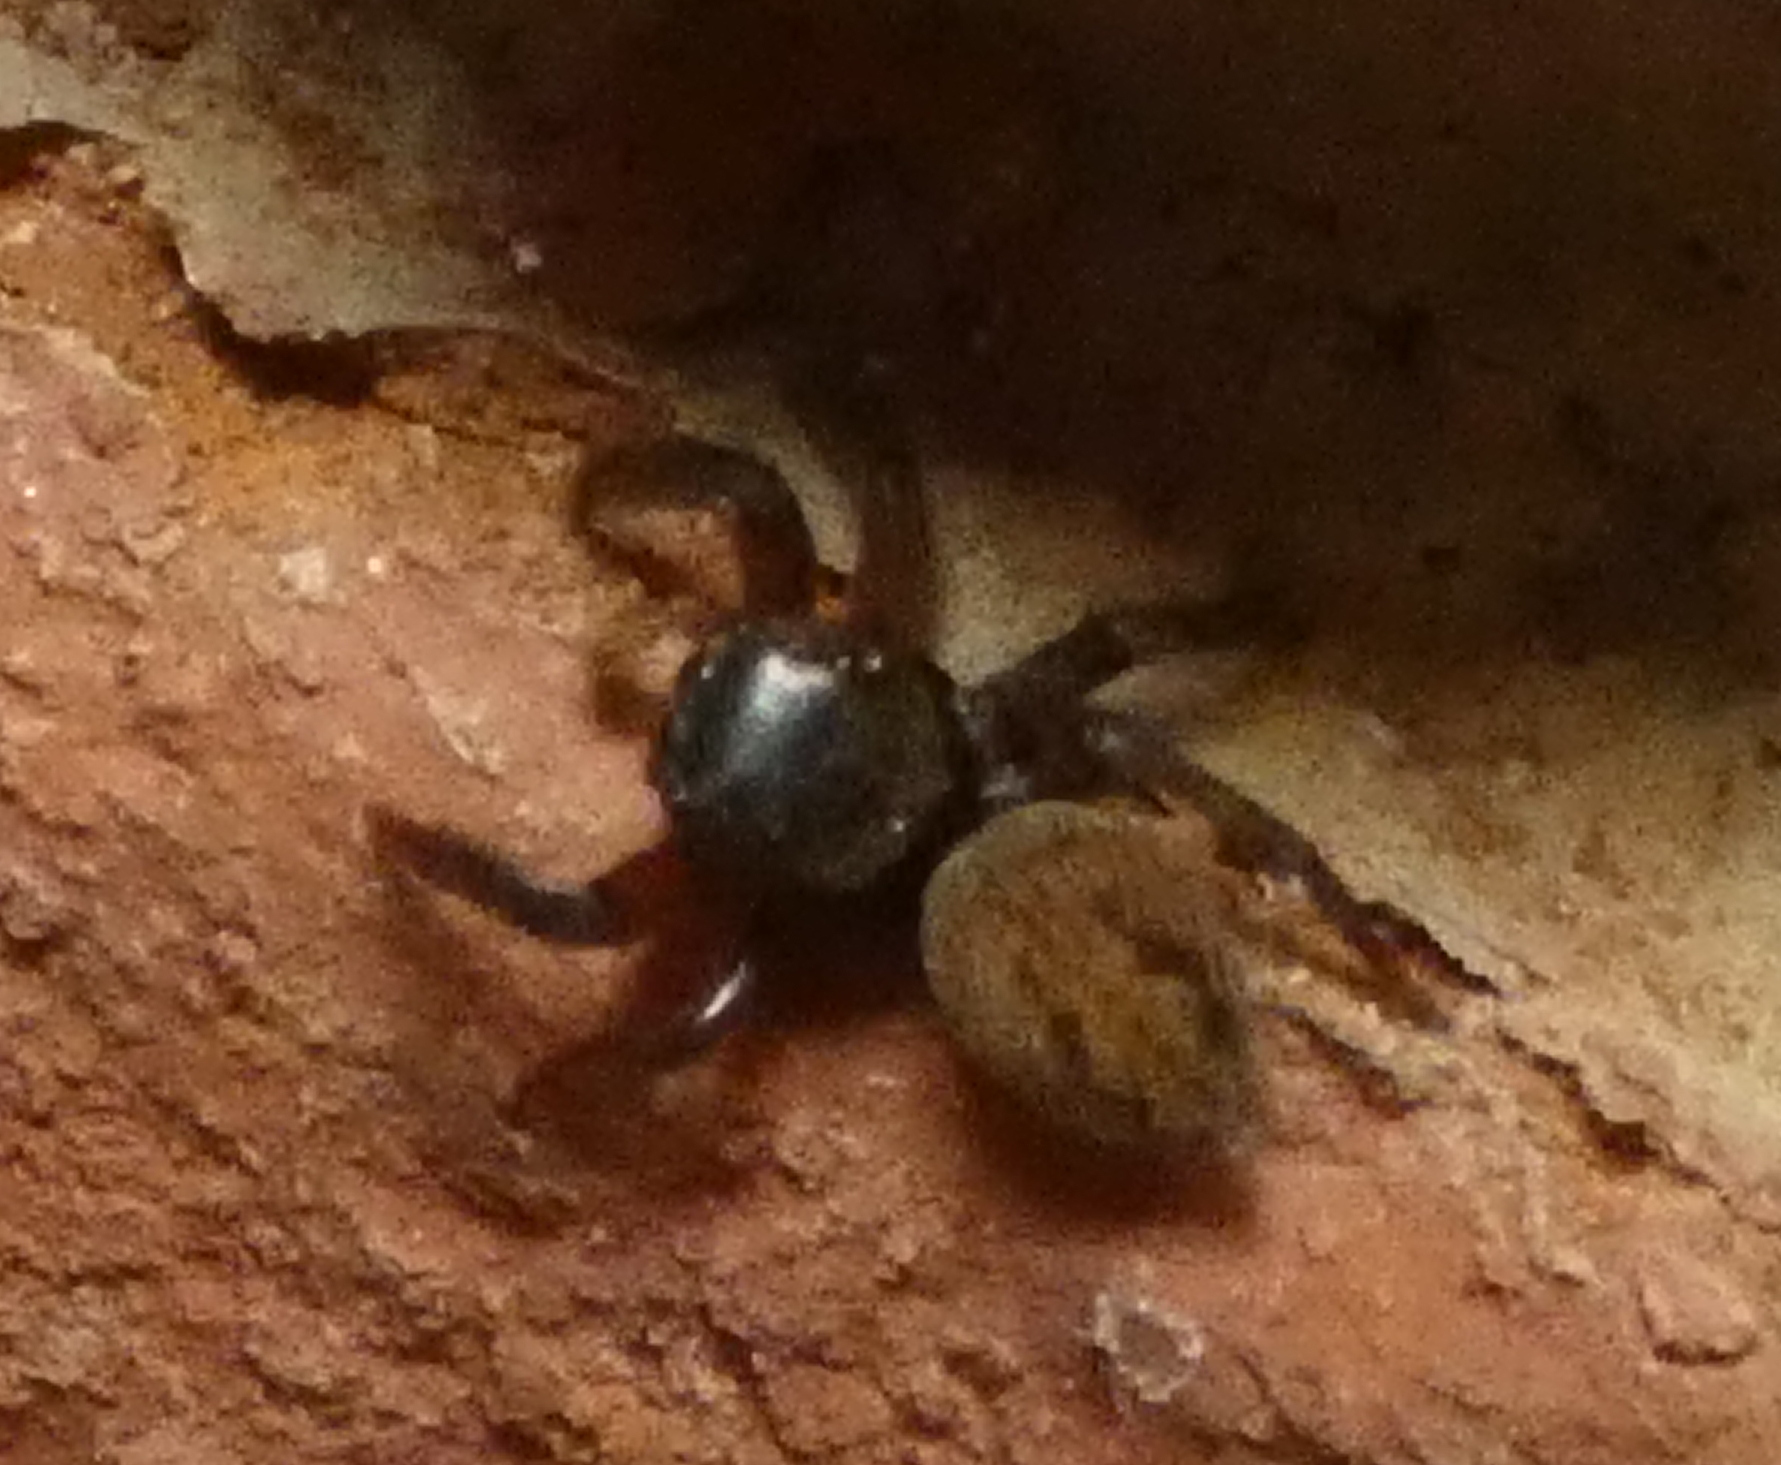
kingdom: Animalia
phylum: Arthropoda
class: Arachnida
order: Araneae
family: Salticidae
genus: Hasarius
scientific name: Hasarius adansoni
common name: Jumping spider
